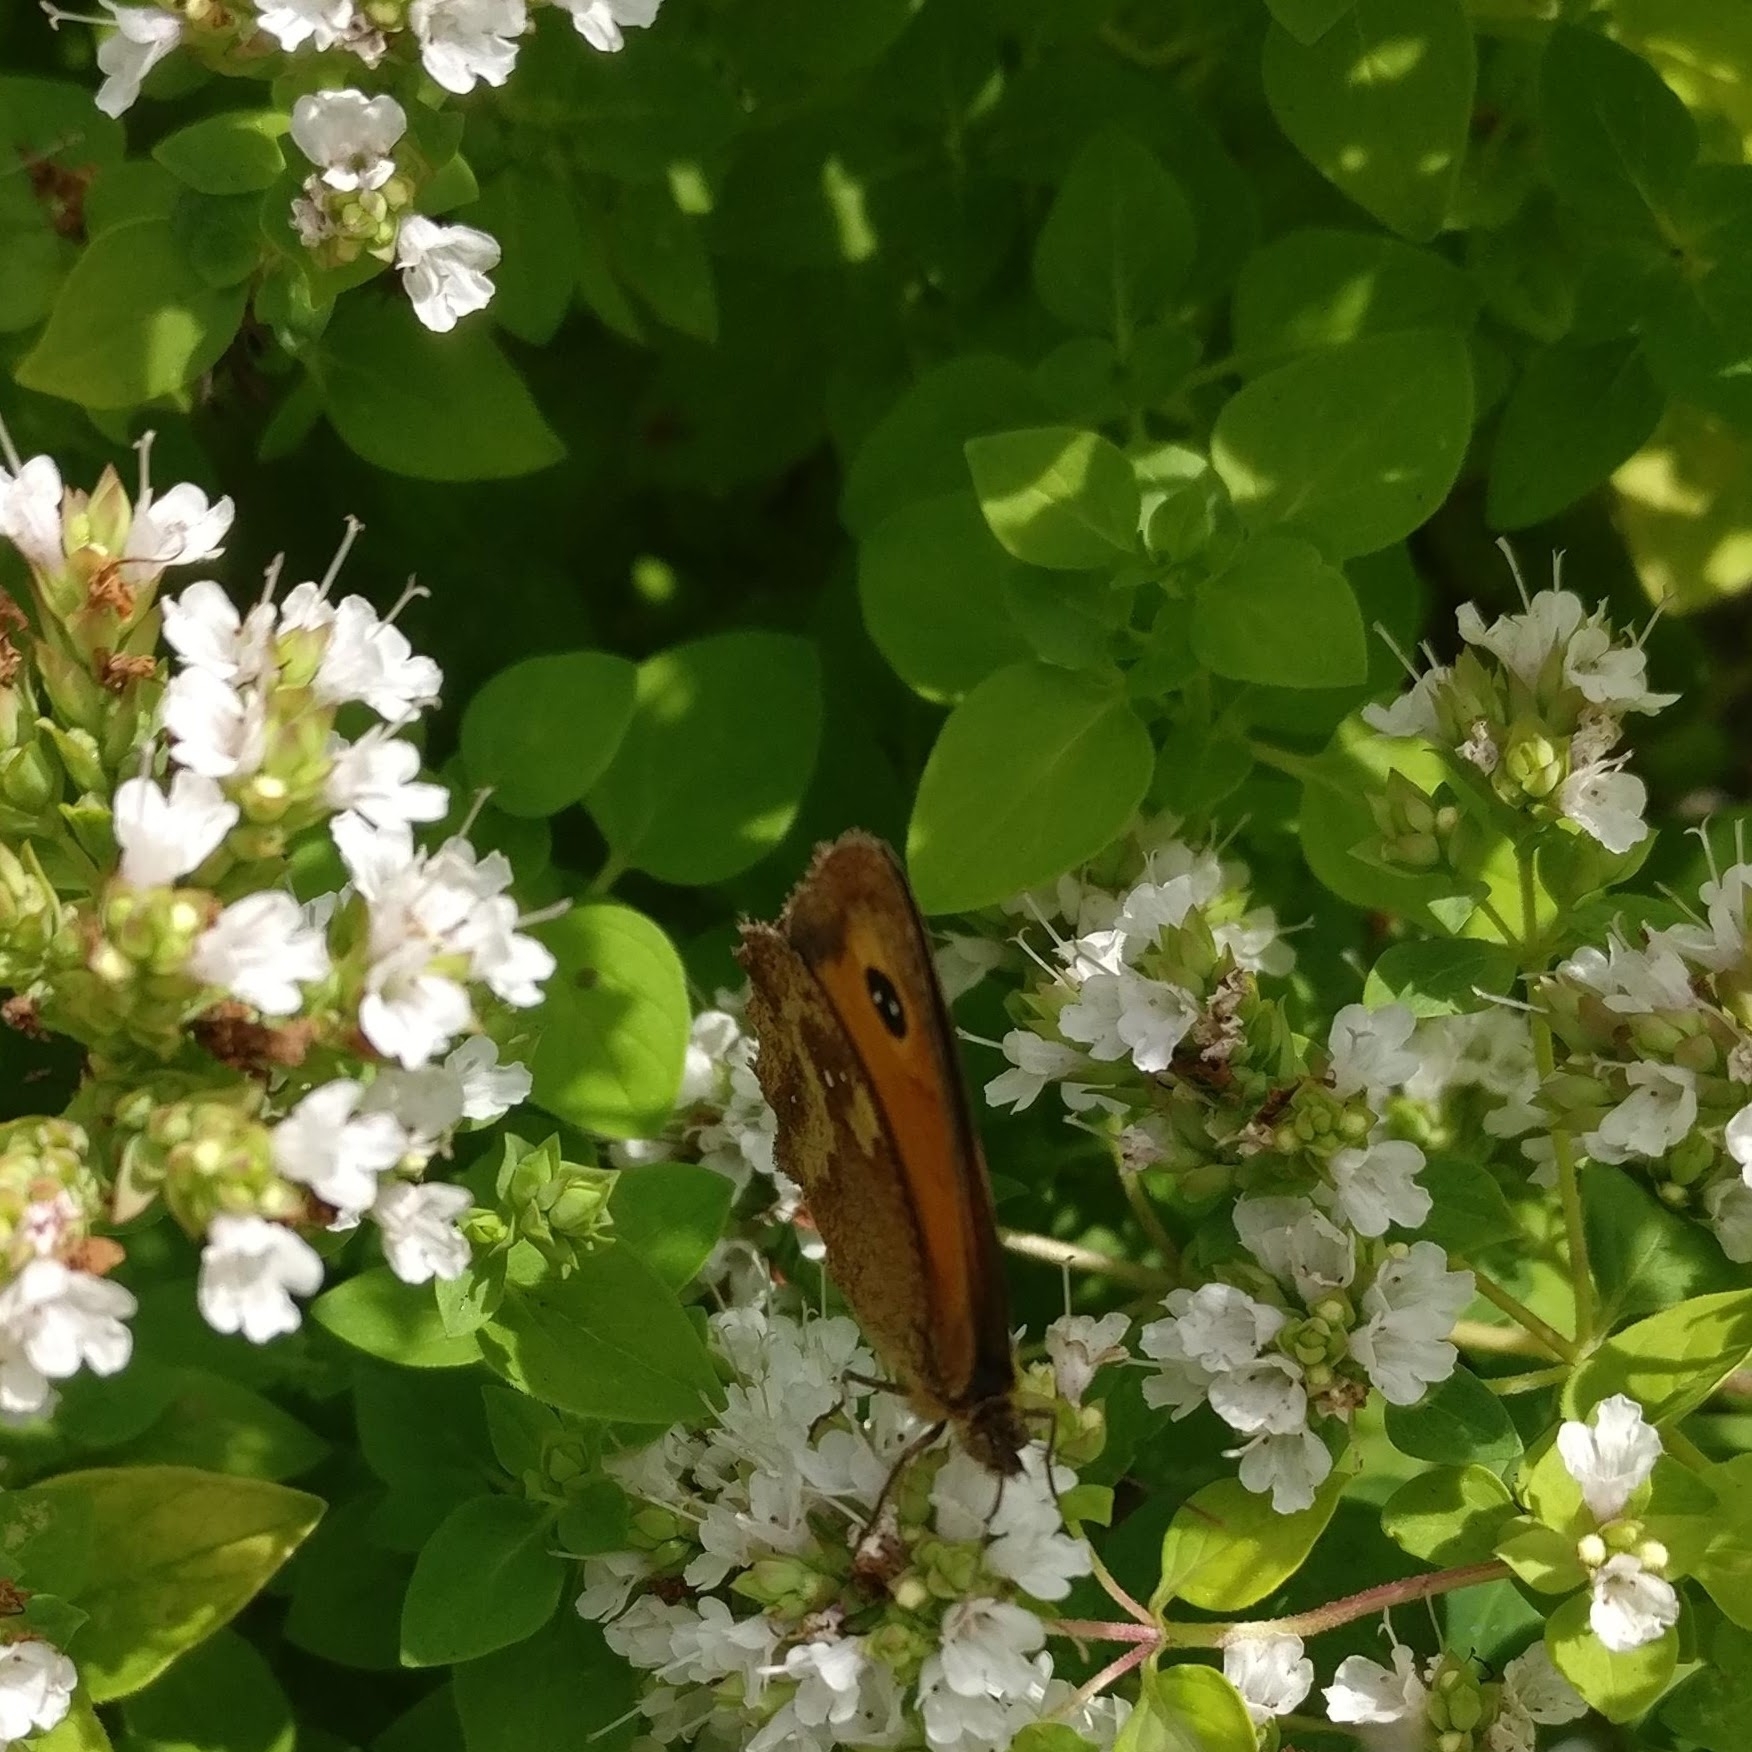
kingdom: Animalia
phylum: Arthropoda
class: Insecta
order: Lepidoptera
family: Nymphalidae
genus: Pyronia
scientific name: Pyronia tithonus
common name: Gatekeeper
